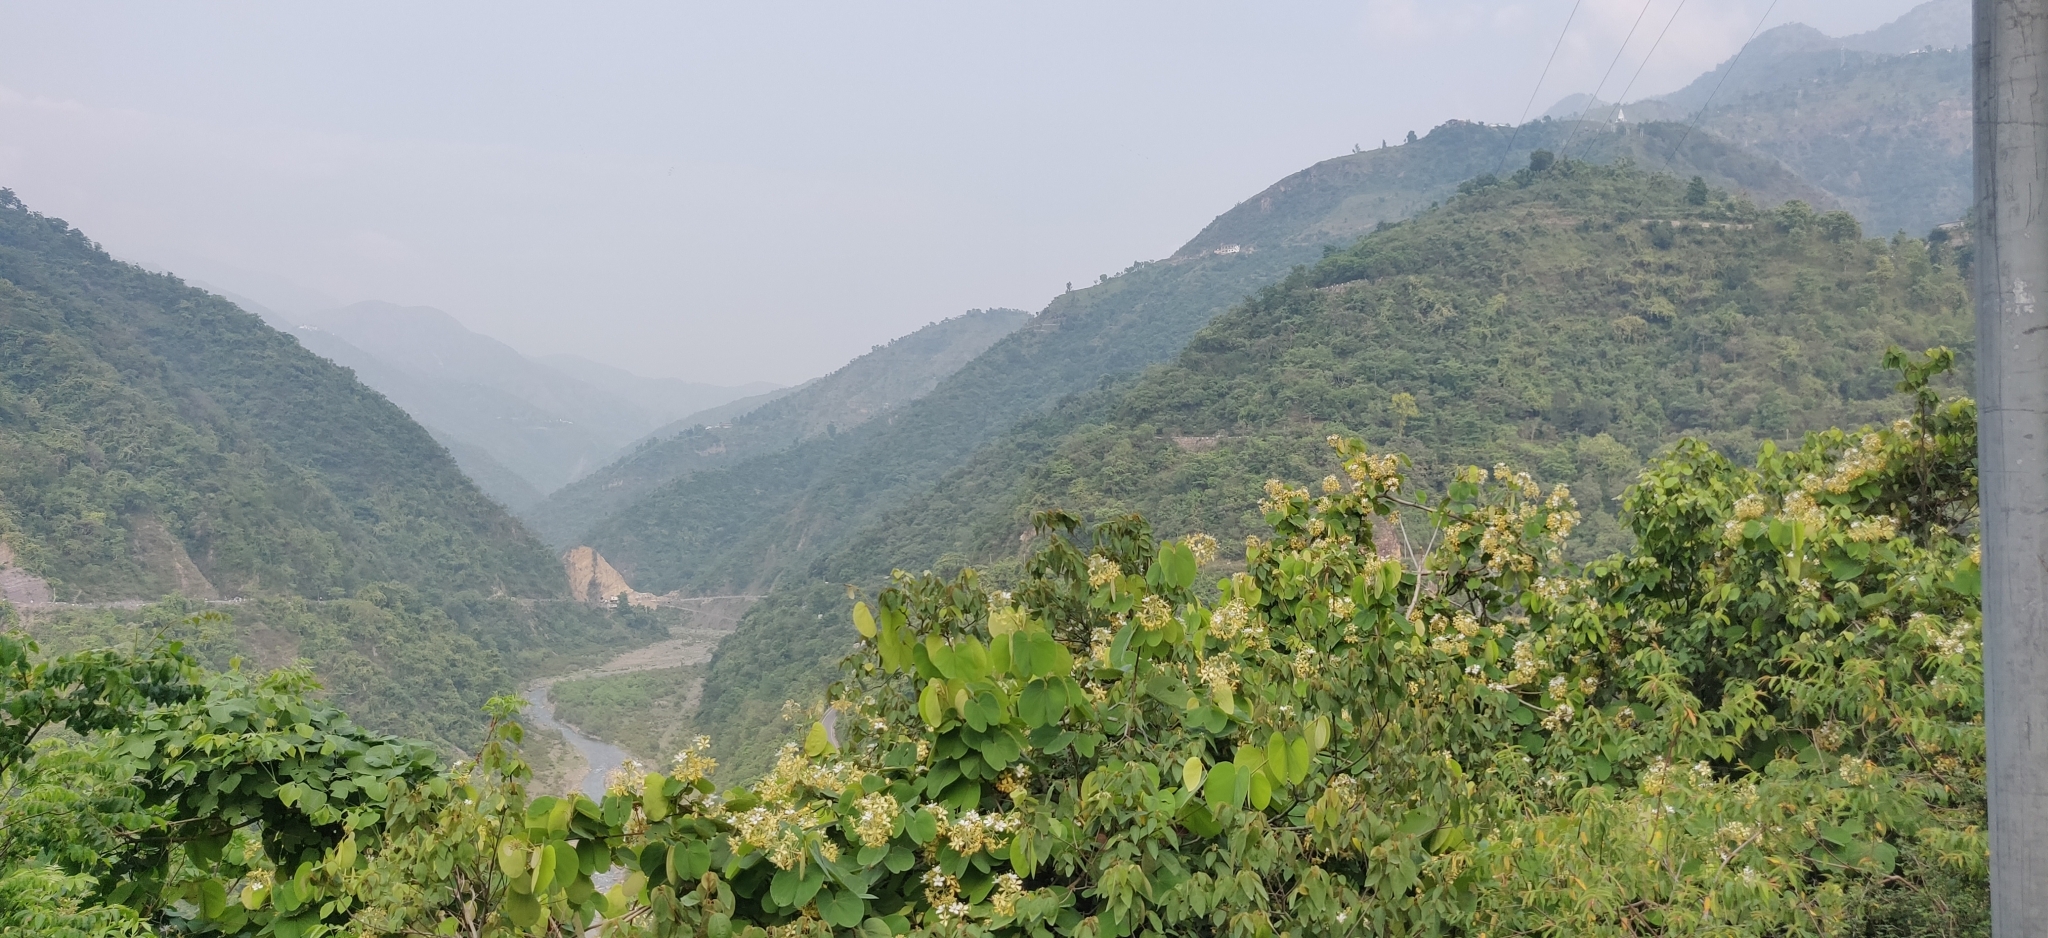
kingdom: Plantae
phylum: Tracheophyta
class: Magnoliopsida
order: Fabales
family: Fabaceae
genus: Phanera
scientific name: Phanera vahlii
